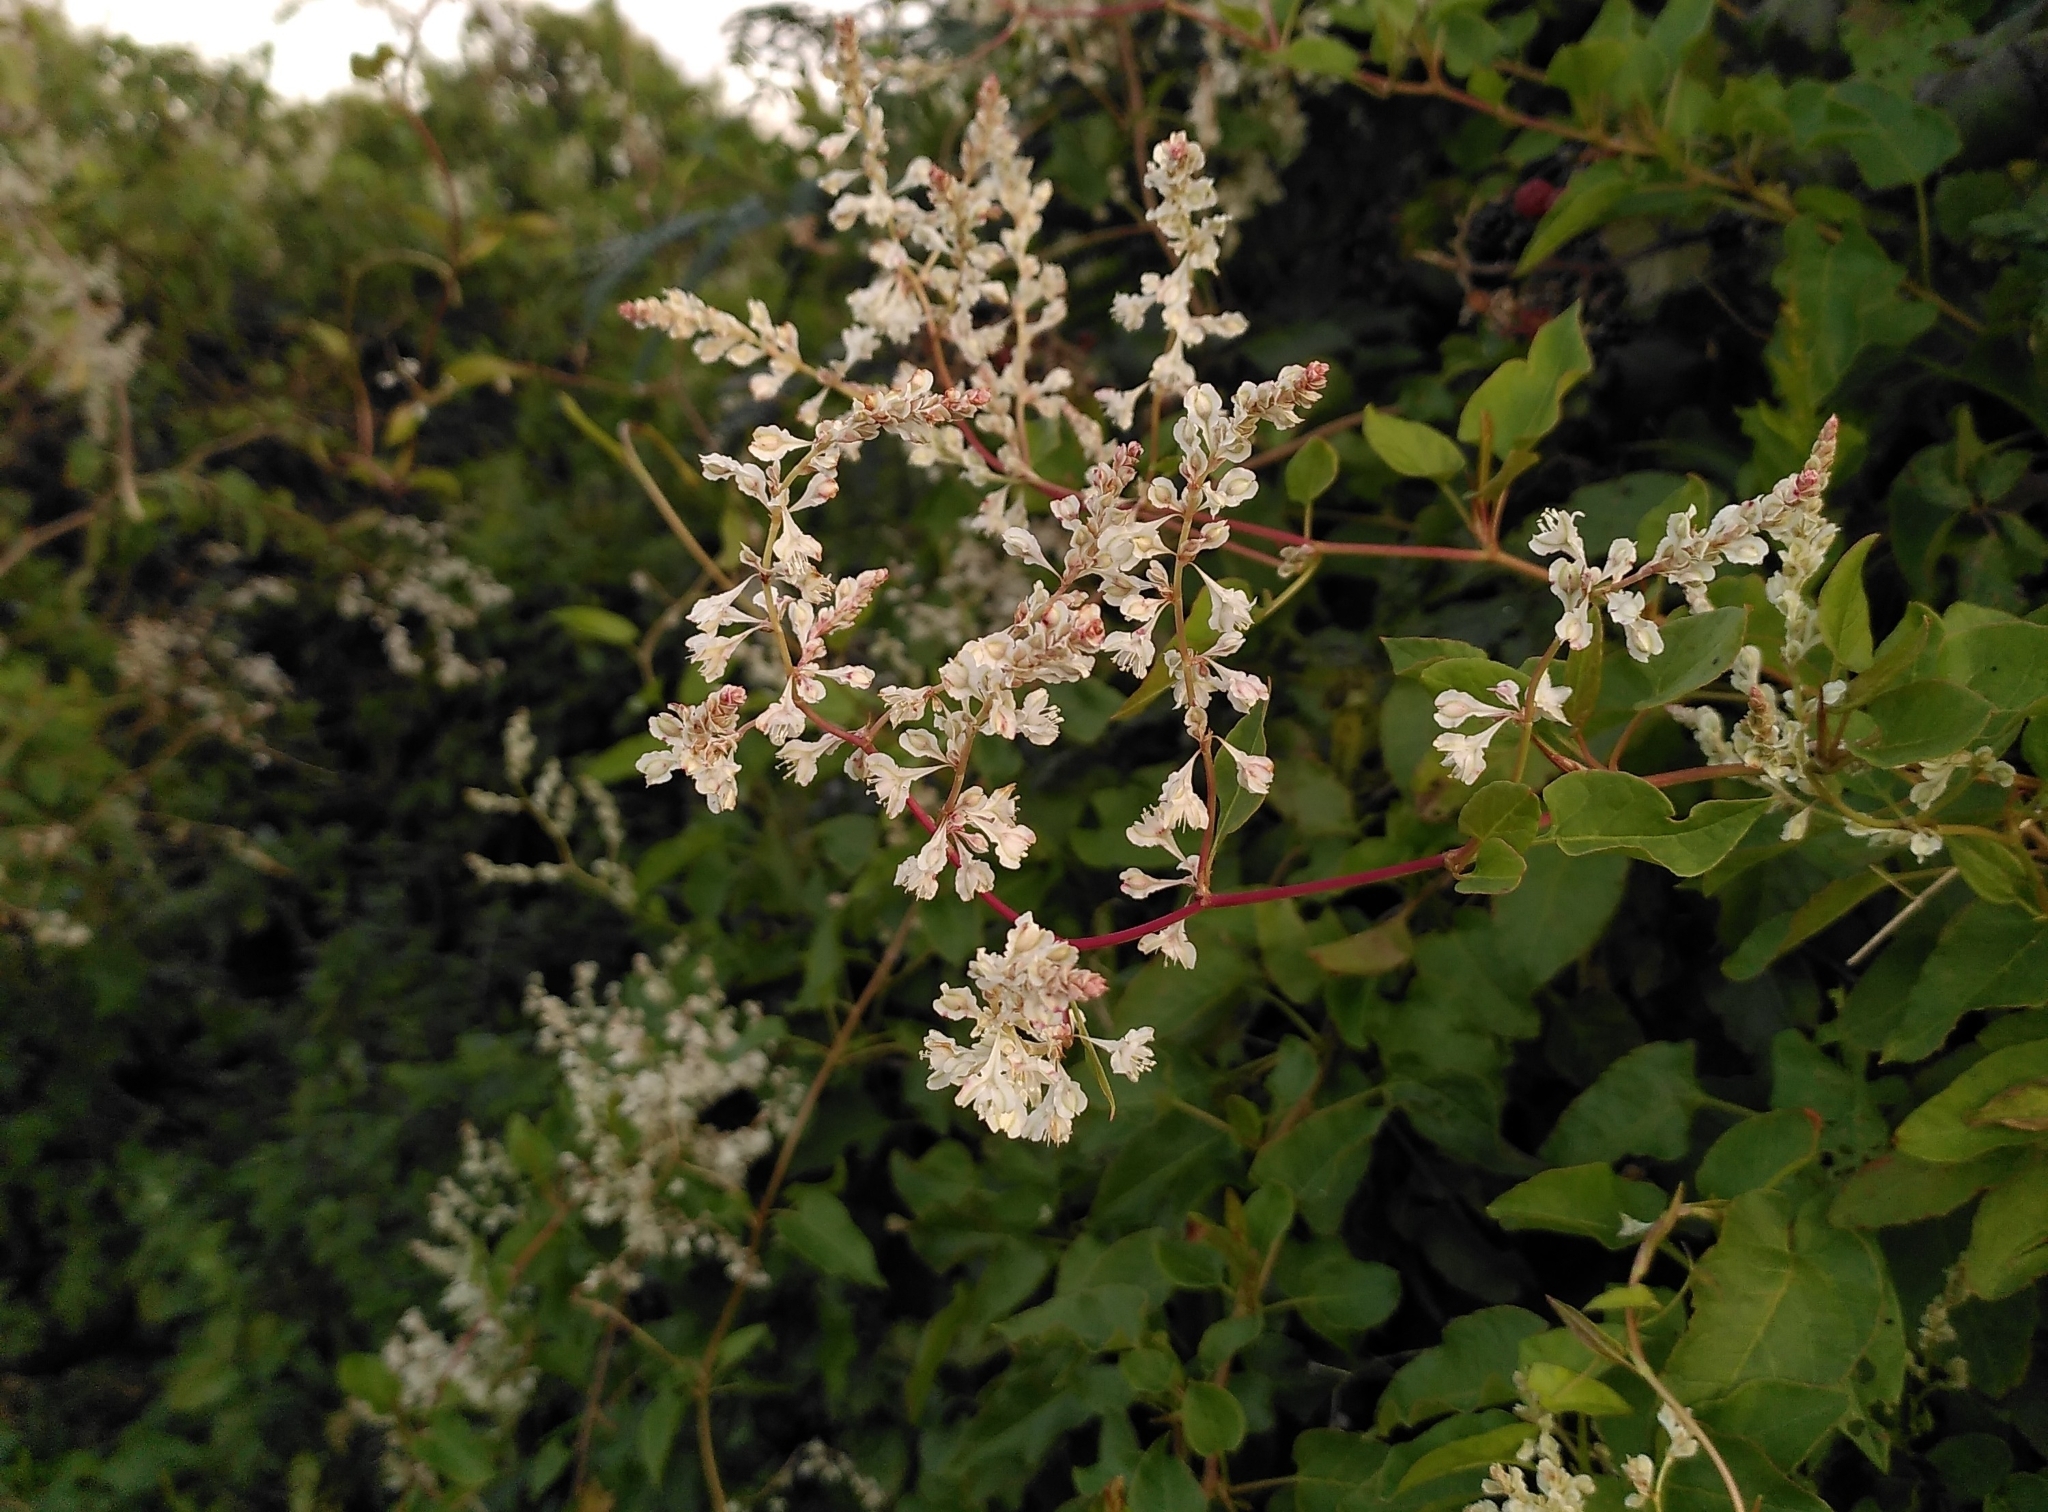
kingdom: Plantae
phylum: Tracheophyta
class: Magnoliopsida
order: Caryophyllales
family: Polygonaceae
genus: Fallopia
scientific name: Fallopia baldschuanica
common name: Russian-vine
